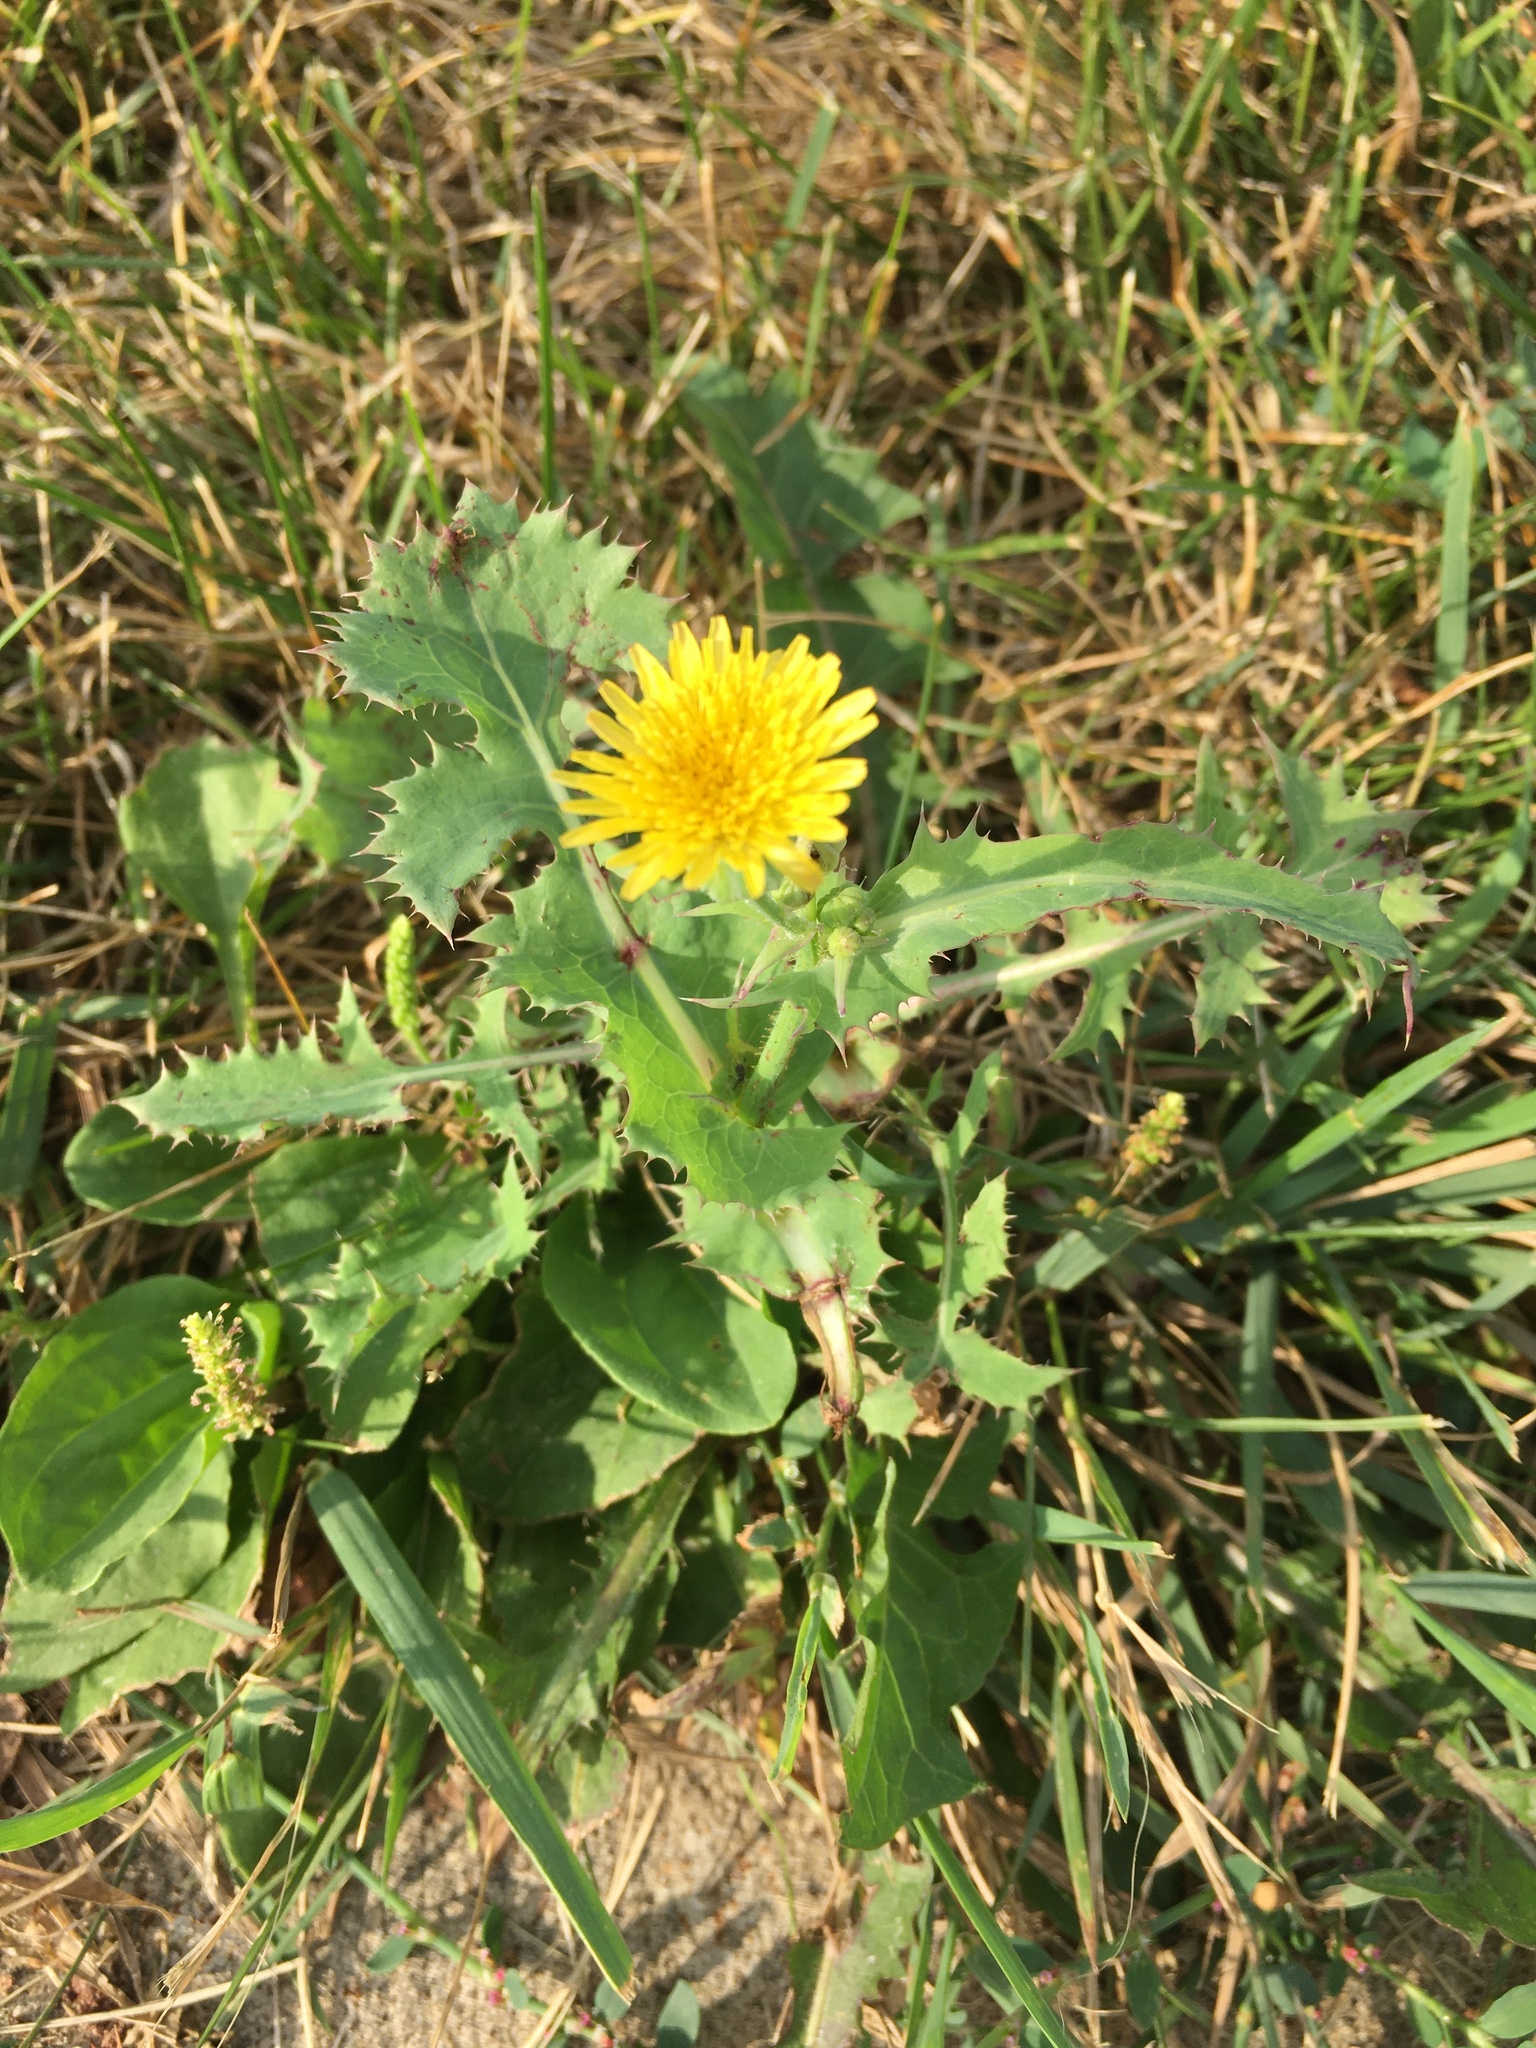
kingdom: Plantae
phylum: Tracheophyta
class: Magnoliopsida
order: Asterales
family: Asteraceae
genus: Sonchus
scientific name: Sonchus oleraceus
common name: Common sowthistle
